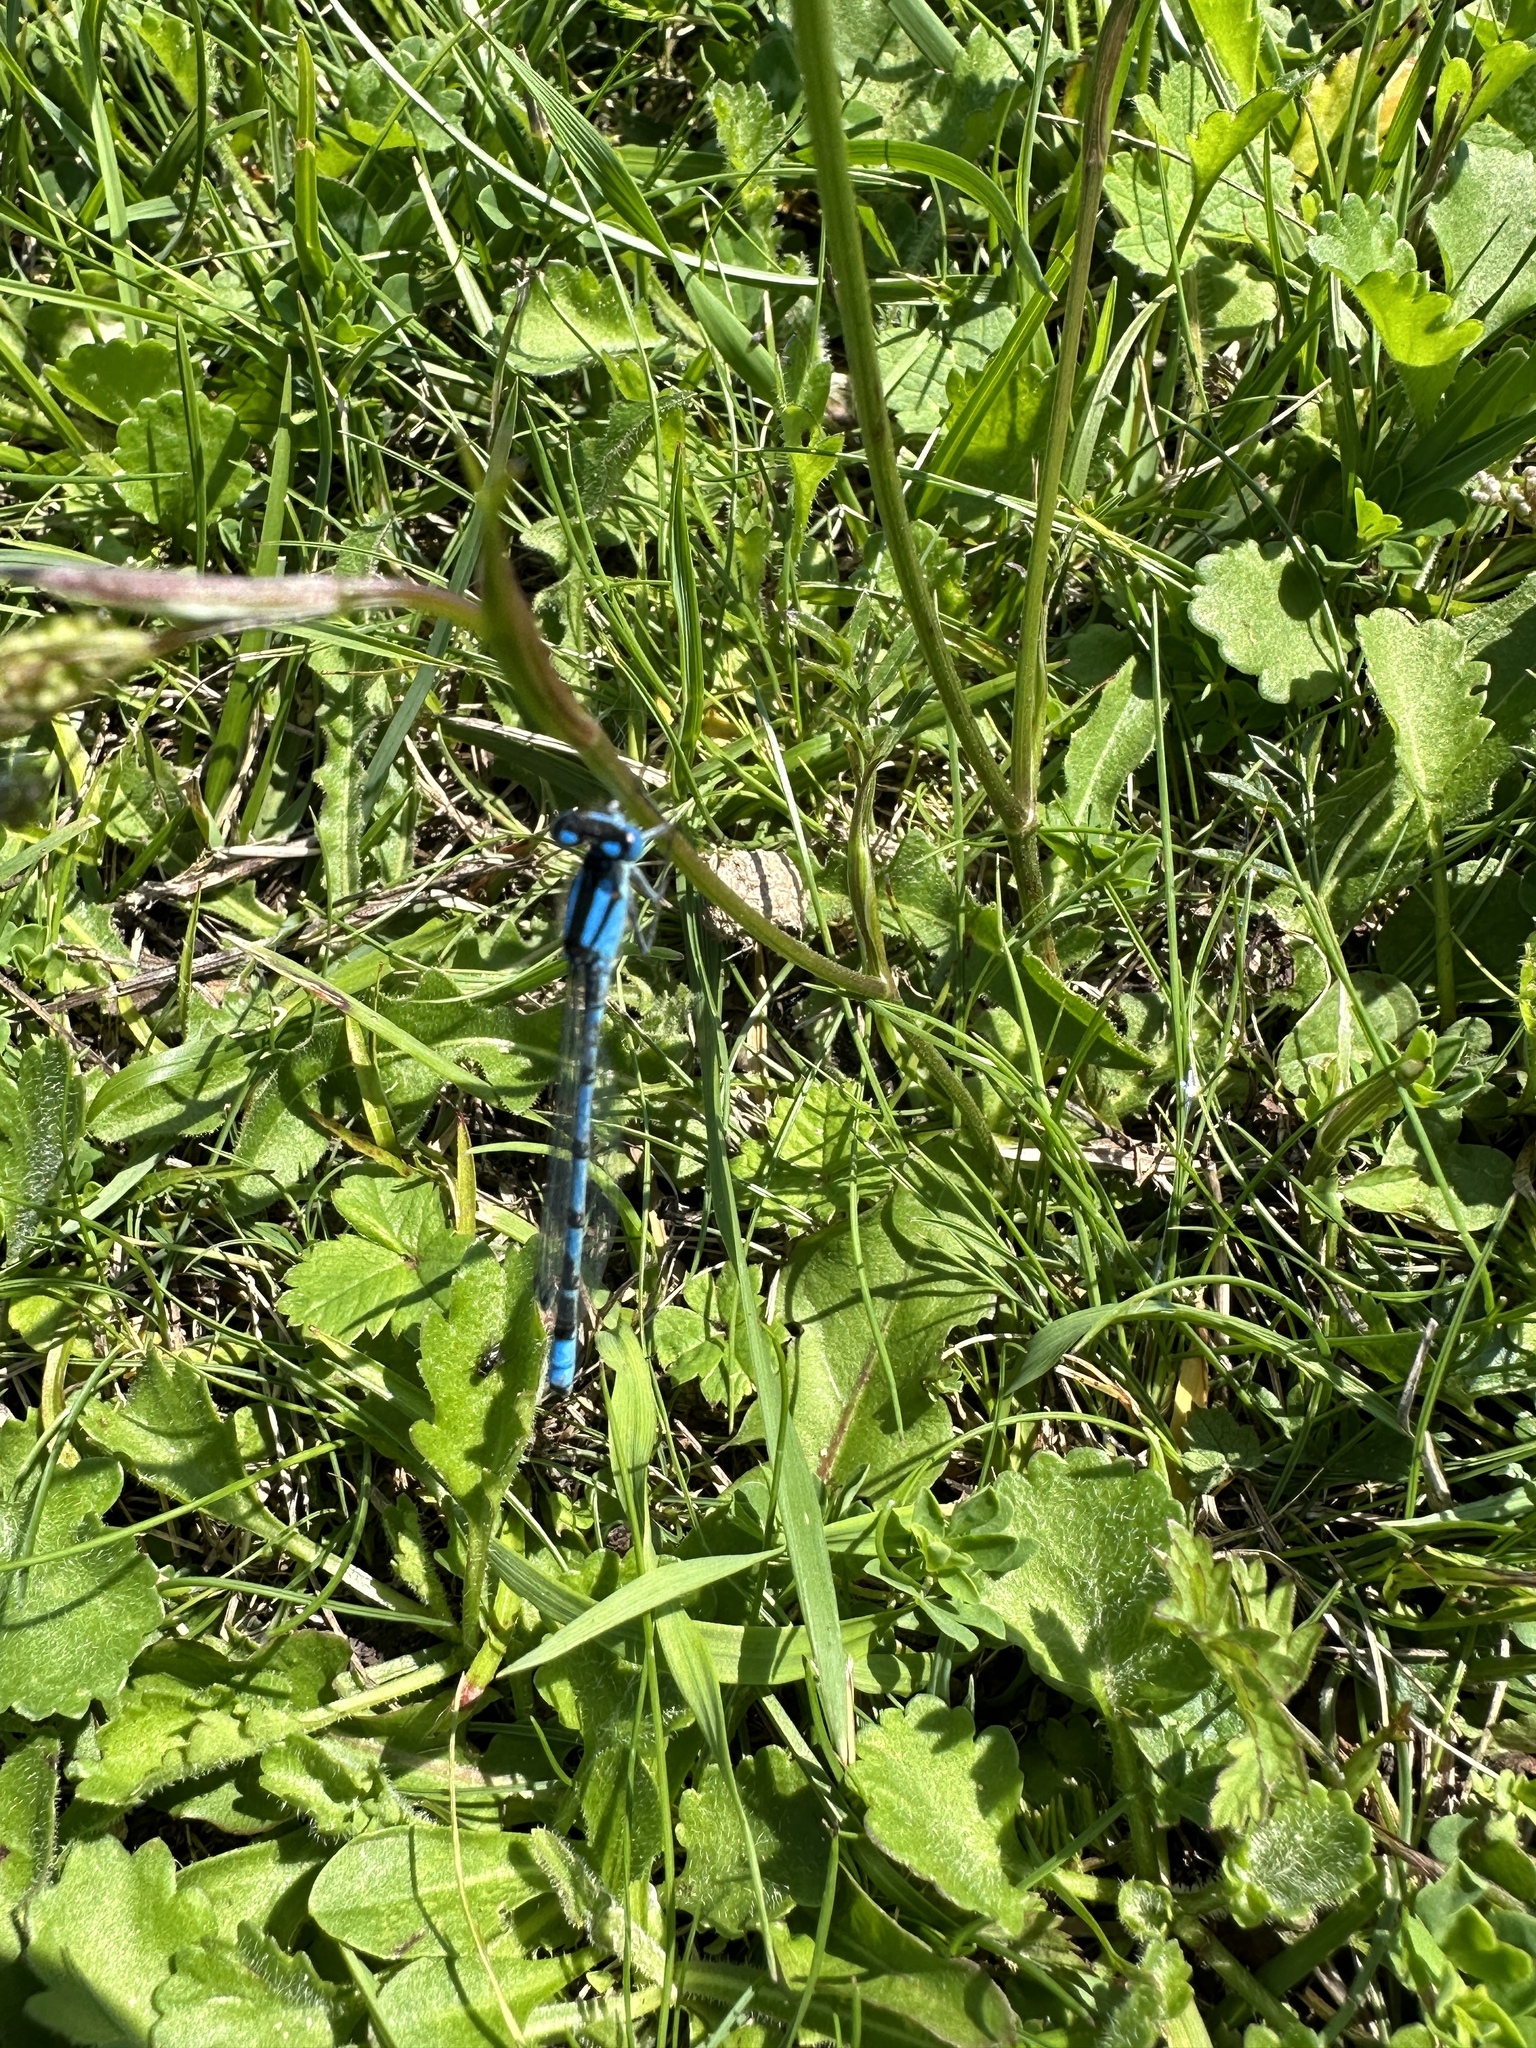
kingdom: Animalia
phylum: Arthropoda
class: Insecta
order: Odonata
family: Coenagrionidae
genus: Enallagma
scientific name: Enallagma cyathigerum
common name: Common blue damselfly
